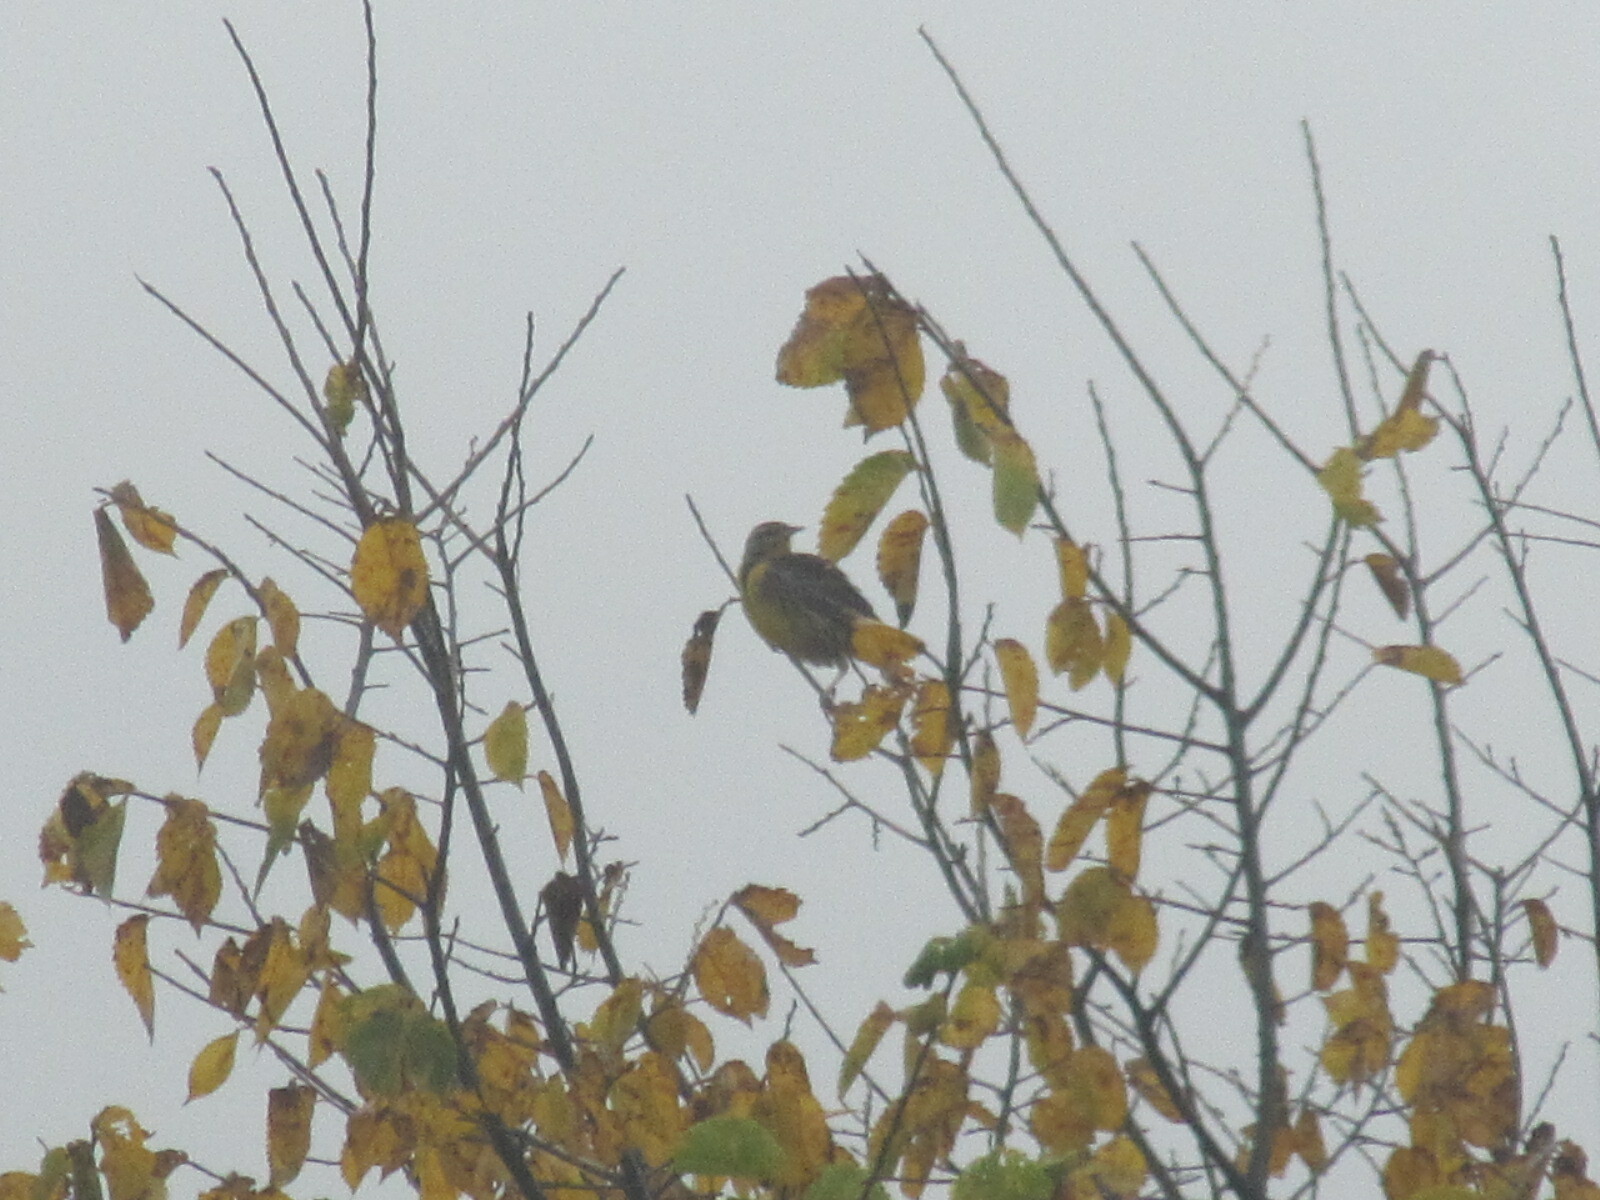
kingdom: Animalia
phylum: Chordata
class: Aves
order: Passeriformes
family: Icteridae
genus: Sturnella
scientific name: Sturnella magna
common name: Eastern meadowlark
